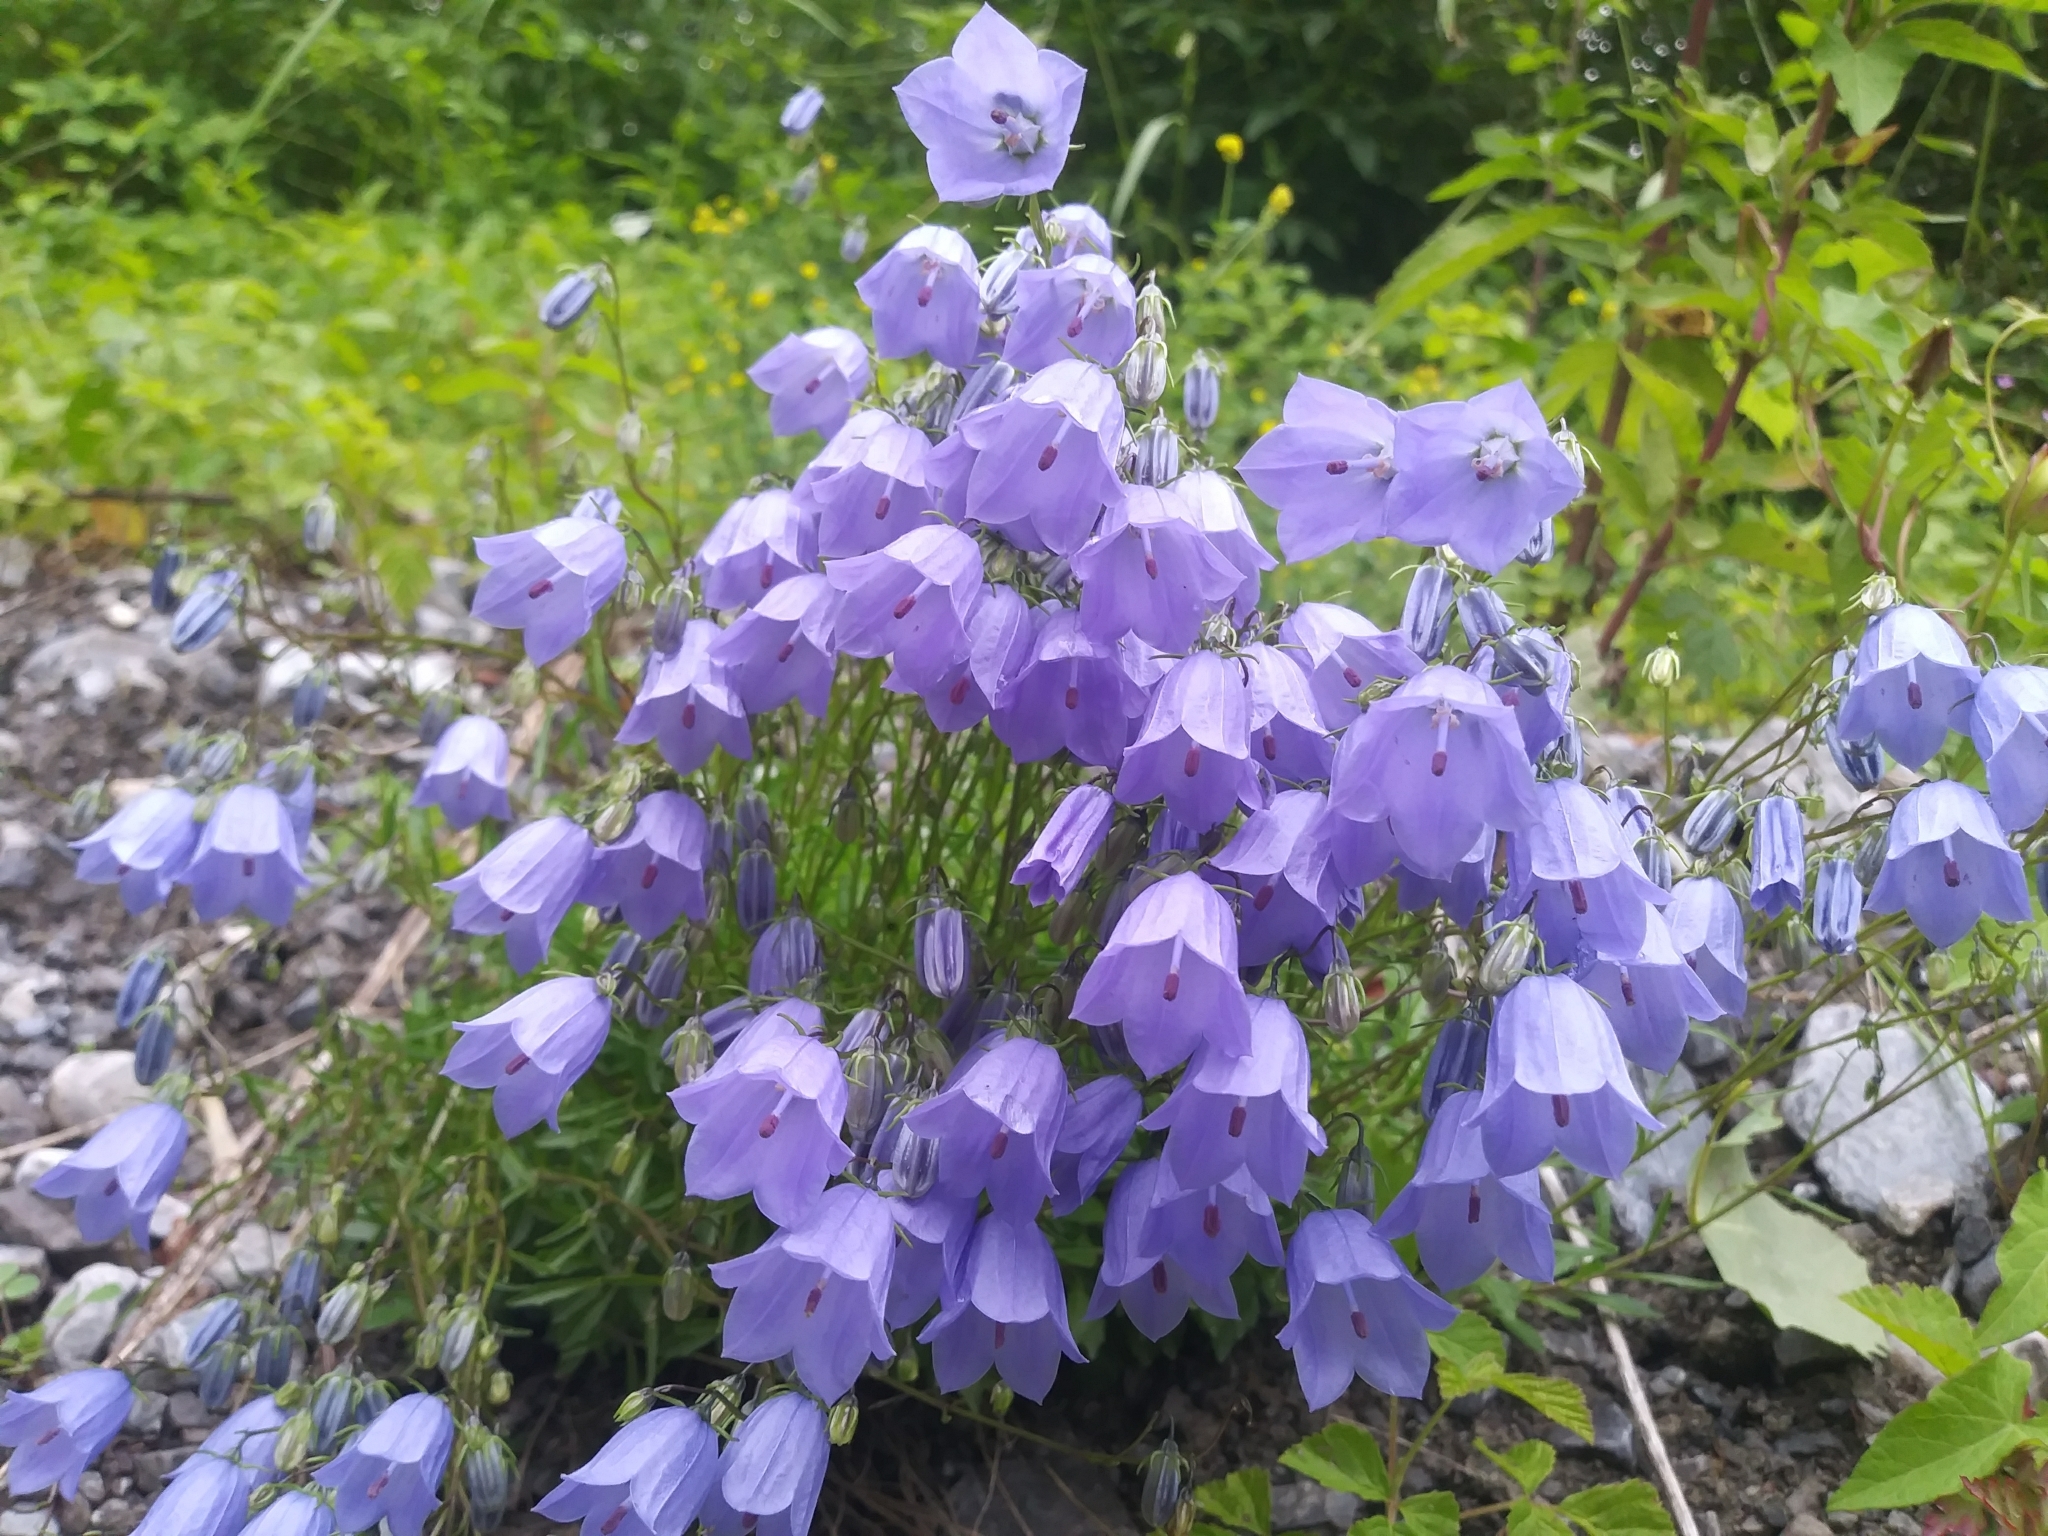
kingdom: Plantae
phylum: Tracheophyta
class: Magnoliopsida
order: Asterales
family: Campanulaceae
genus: Campanula
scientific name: Campanula rotundifolia
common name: Harebell
